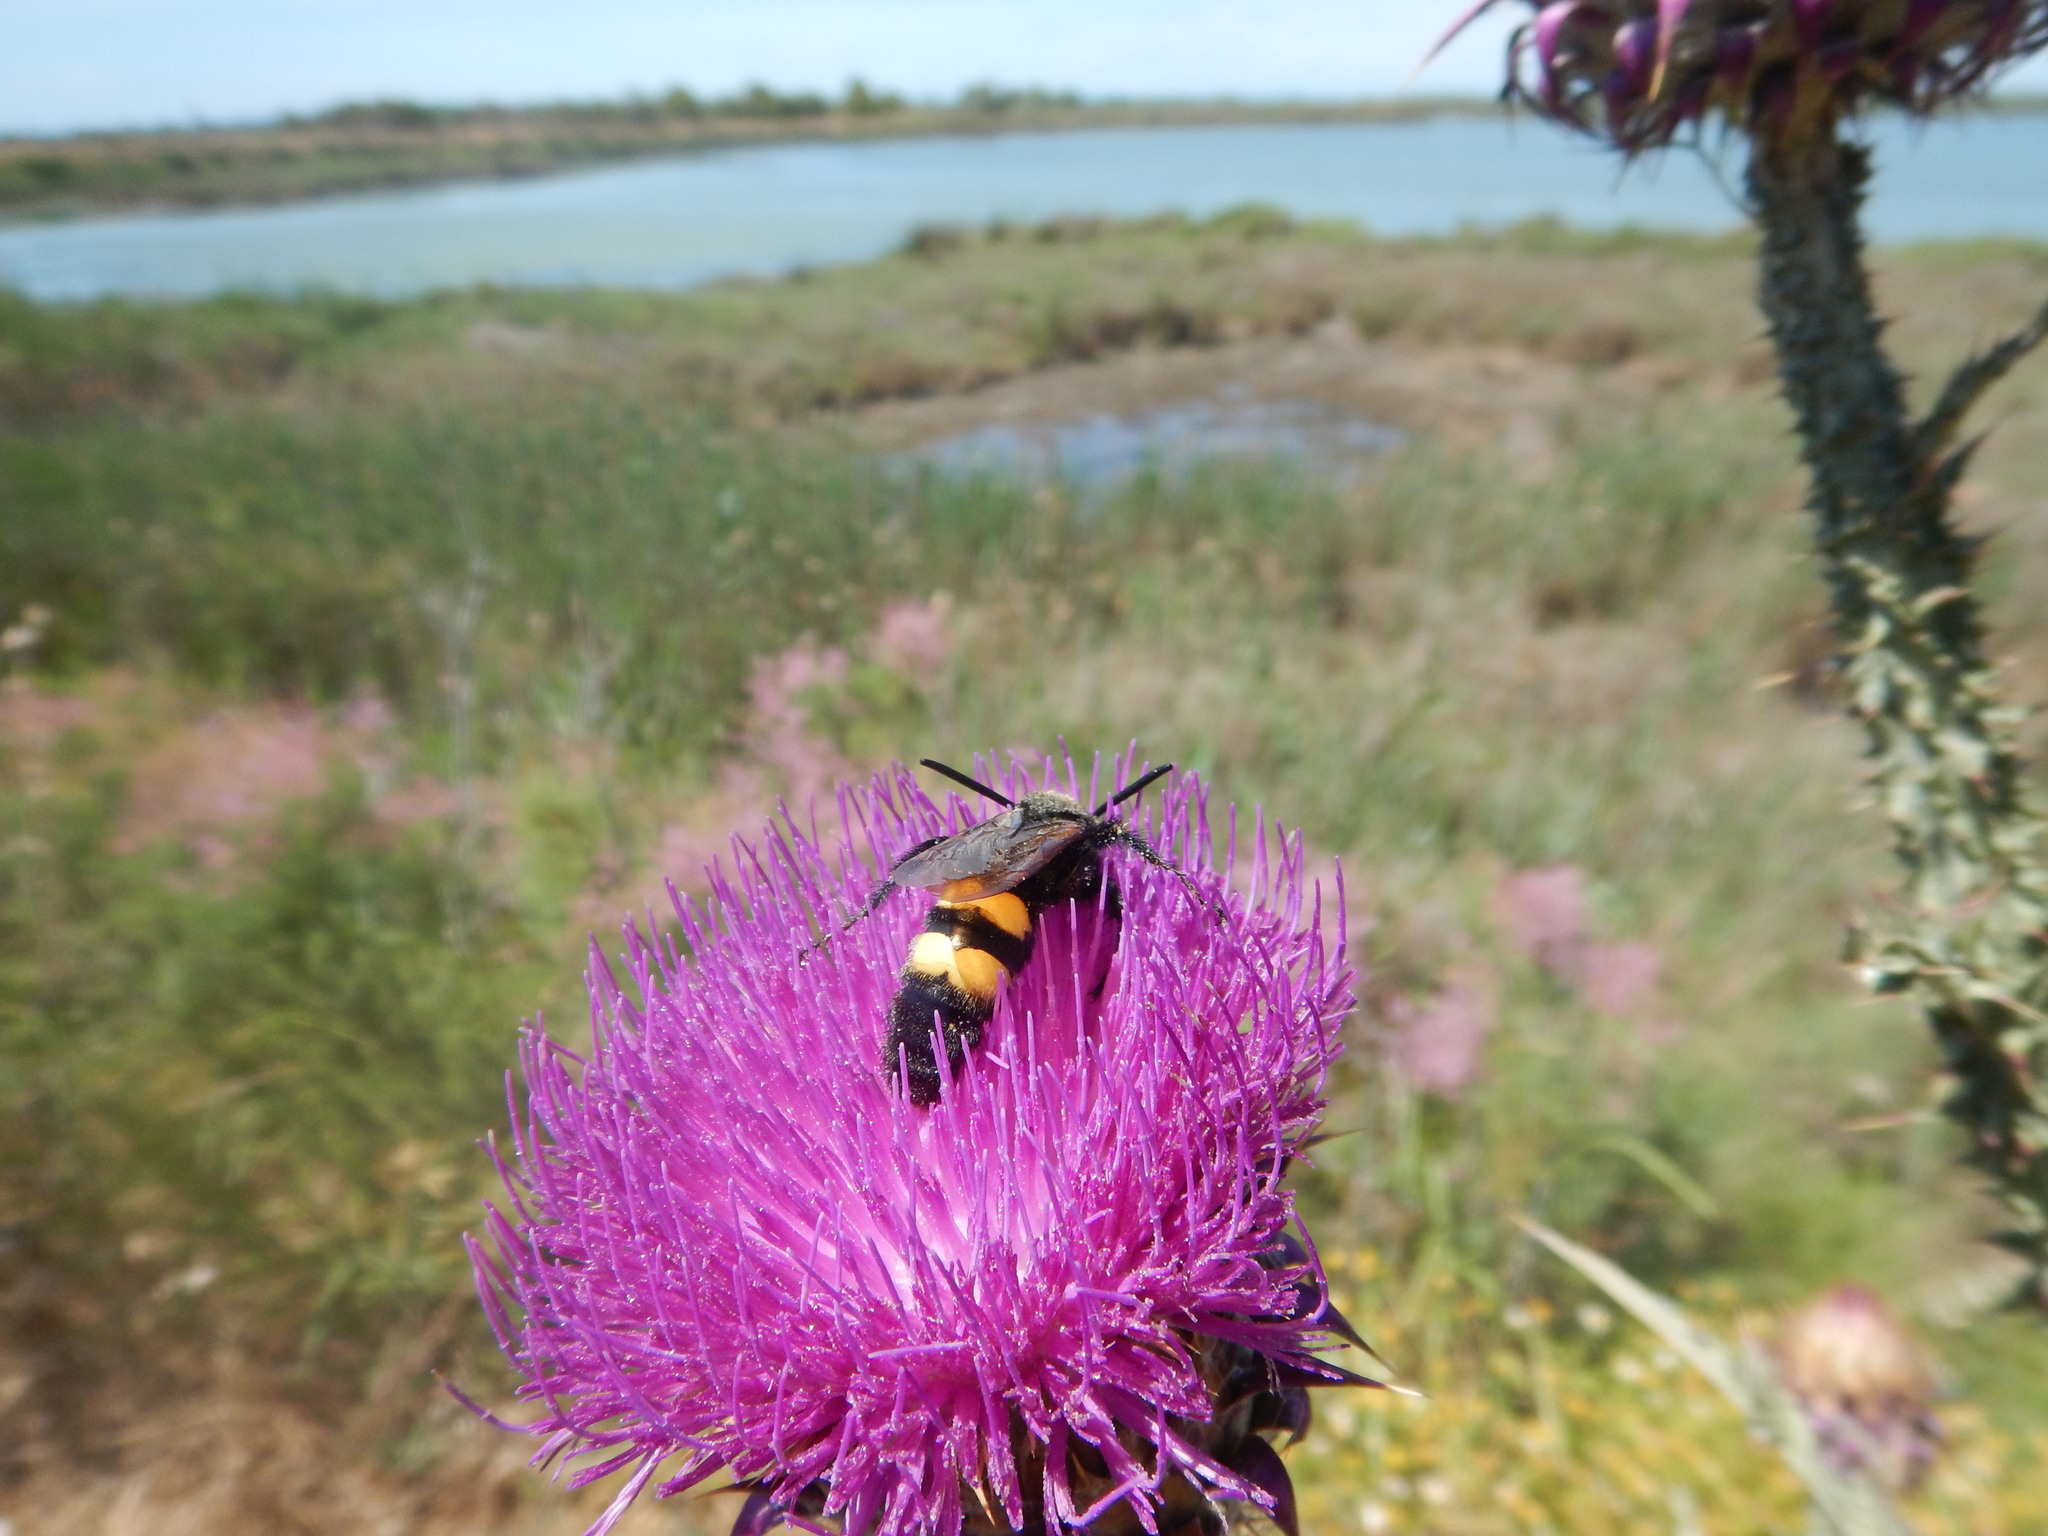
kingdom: Animalia
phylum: Arthropoda
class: Insecta
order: Hymenoptera
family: Scoliidae
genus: Megascolia
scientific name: Megascolia maculata
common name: Mammoth wasp
